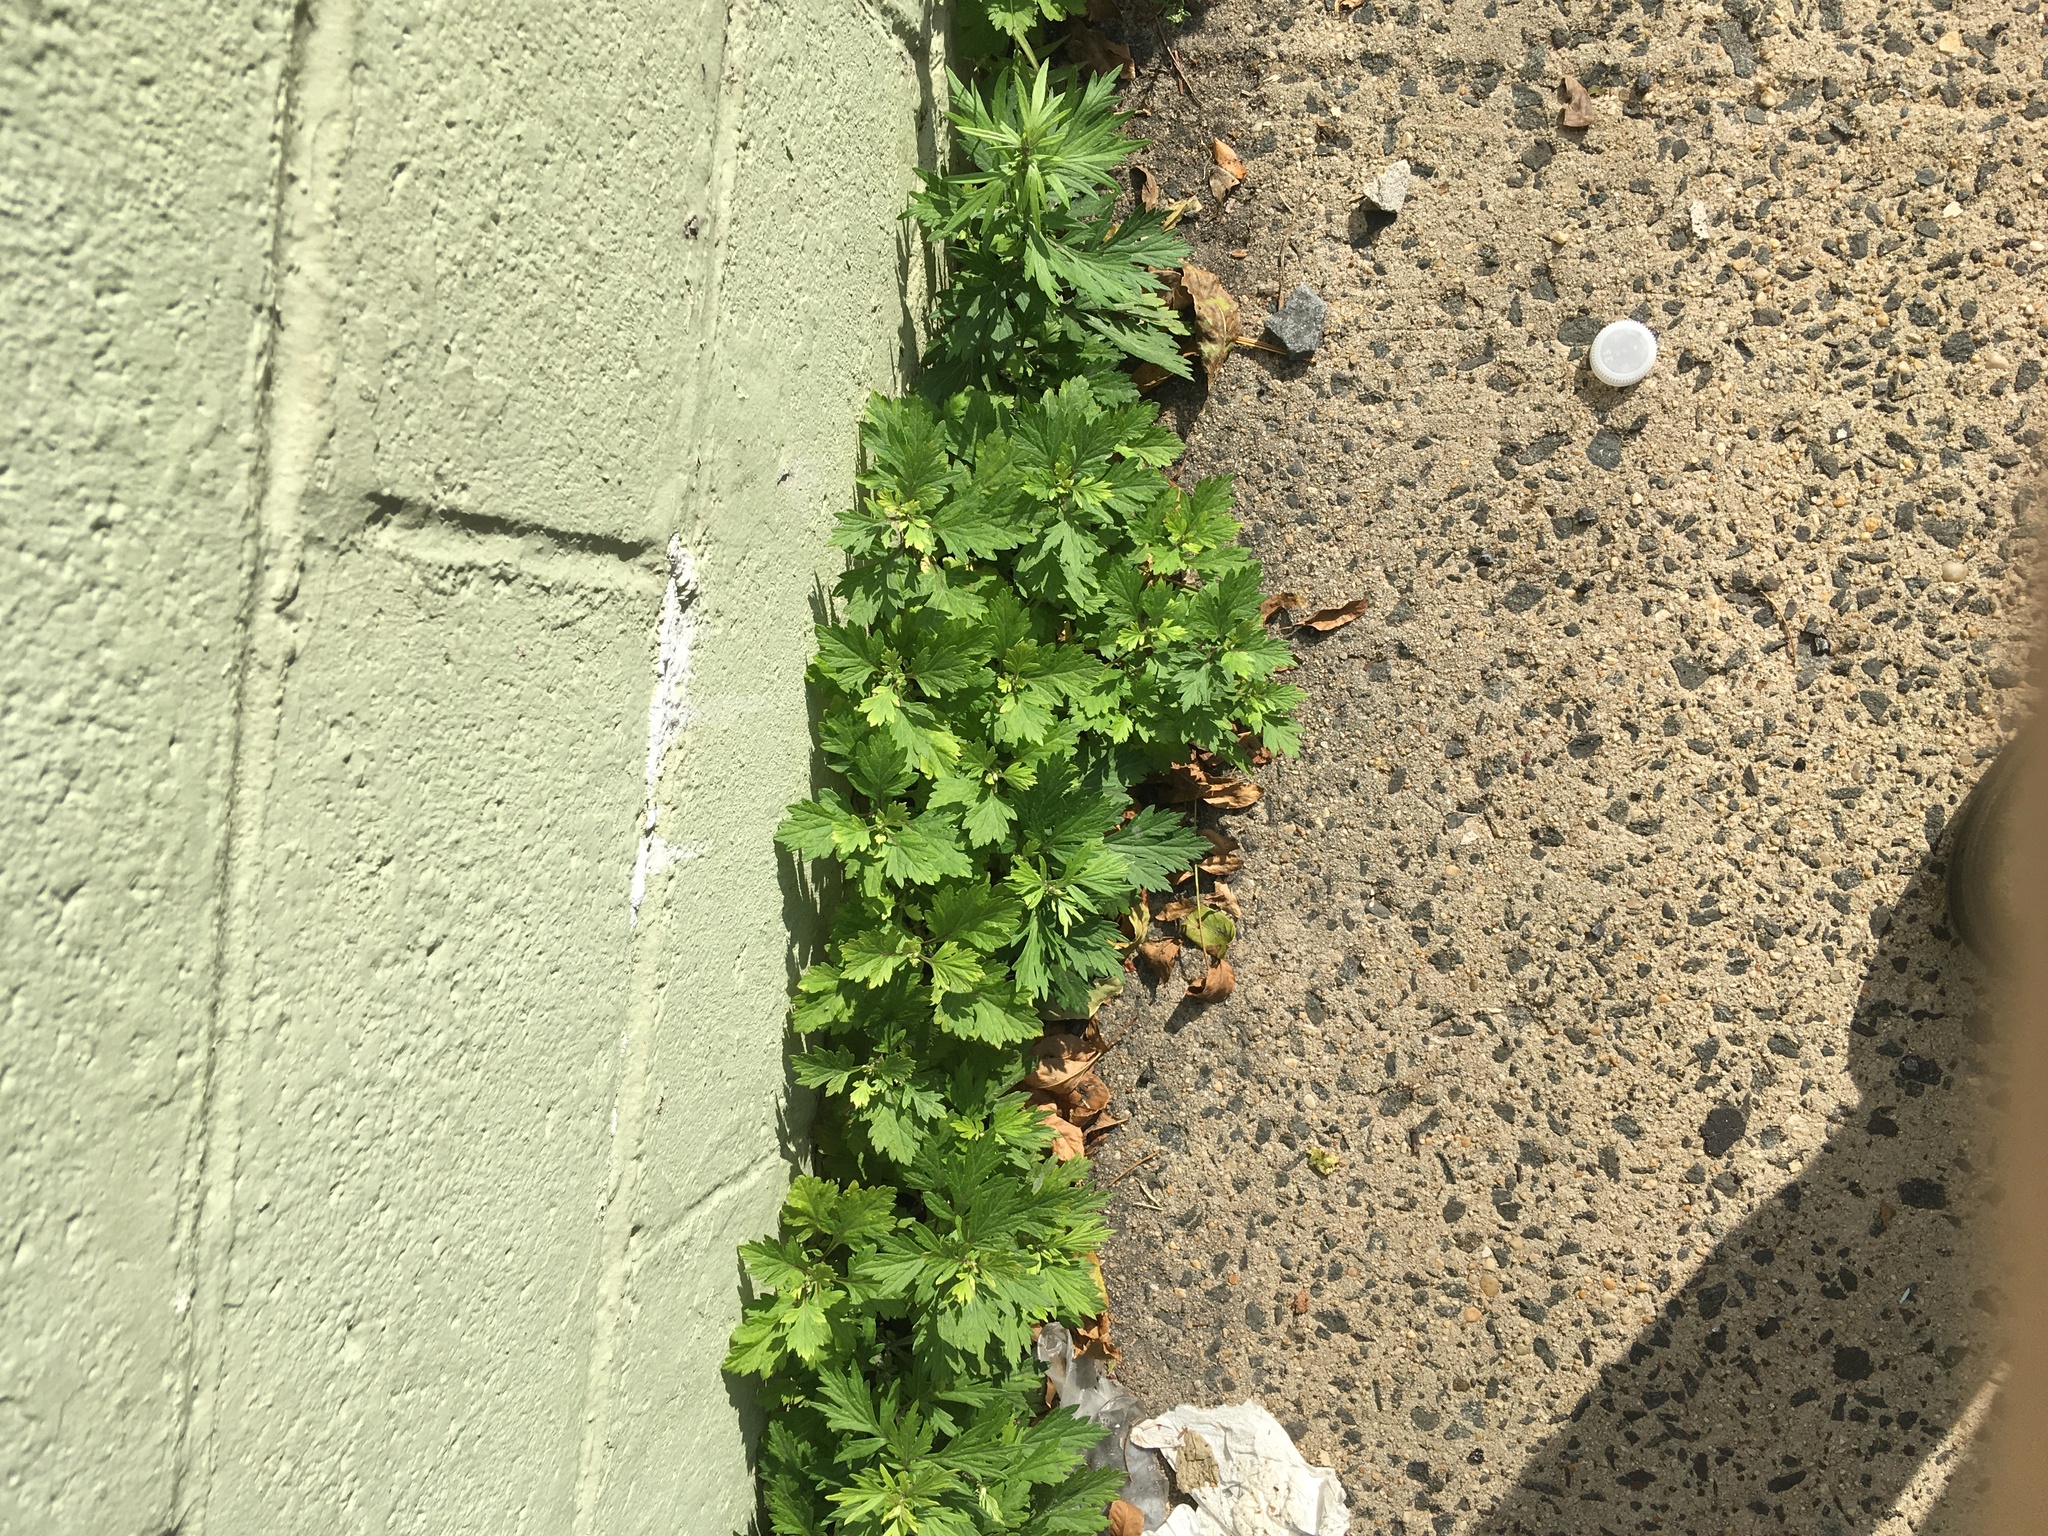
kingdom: Plantae
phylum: Tracheophyta
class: Magnoliopsida
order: Asterales
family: Asteraceae
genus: Artemisia
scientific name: Artemisia vulgaris
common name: Mugwort
